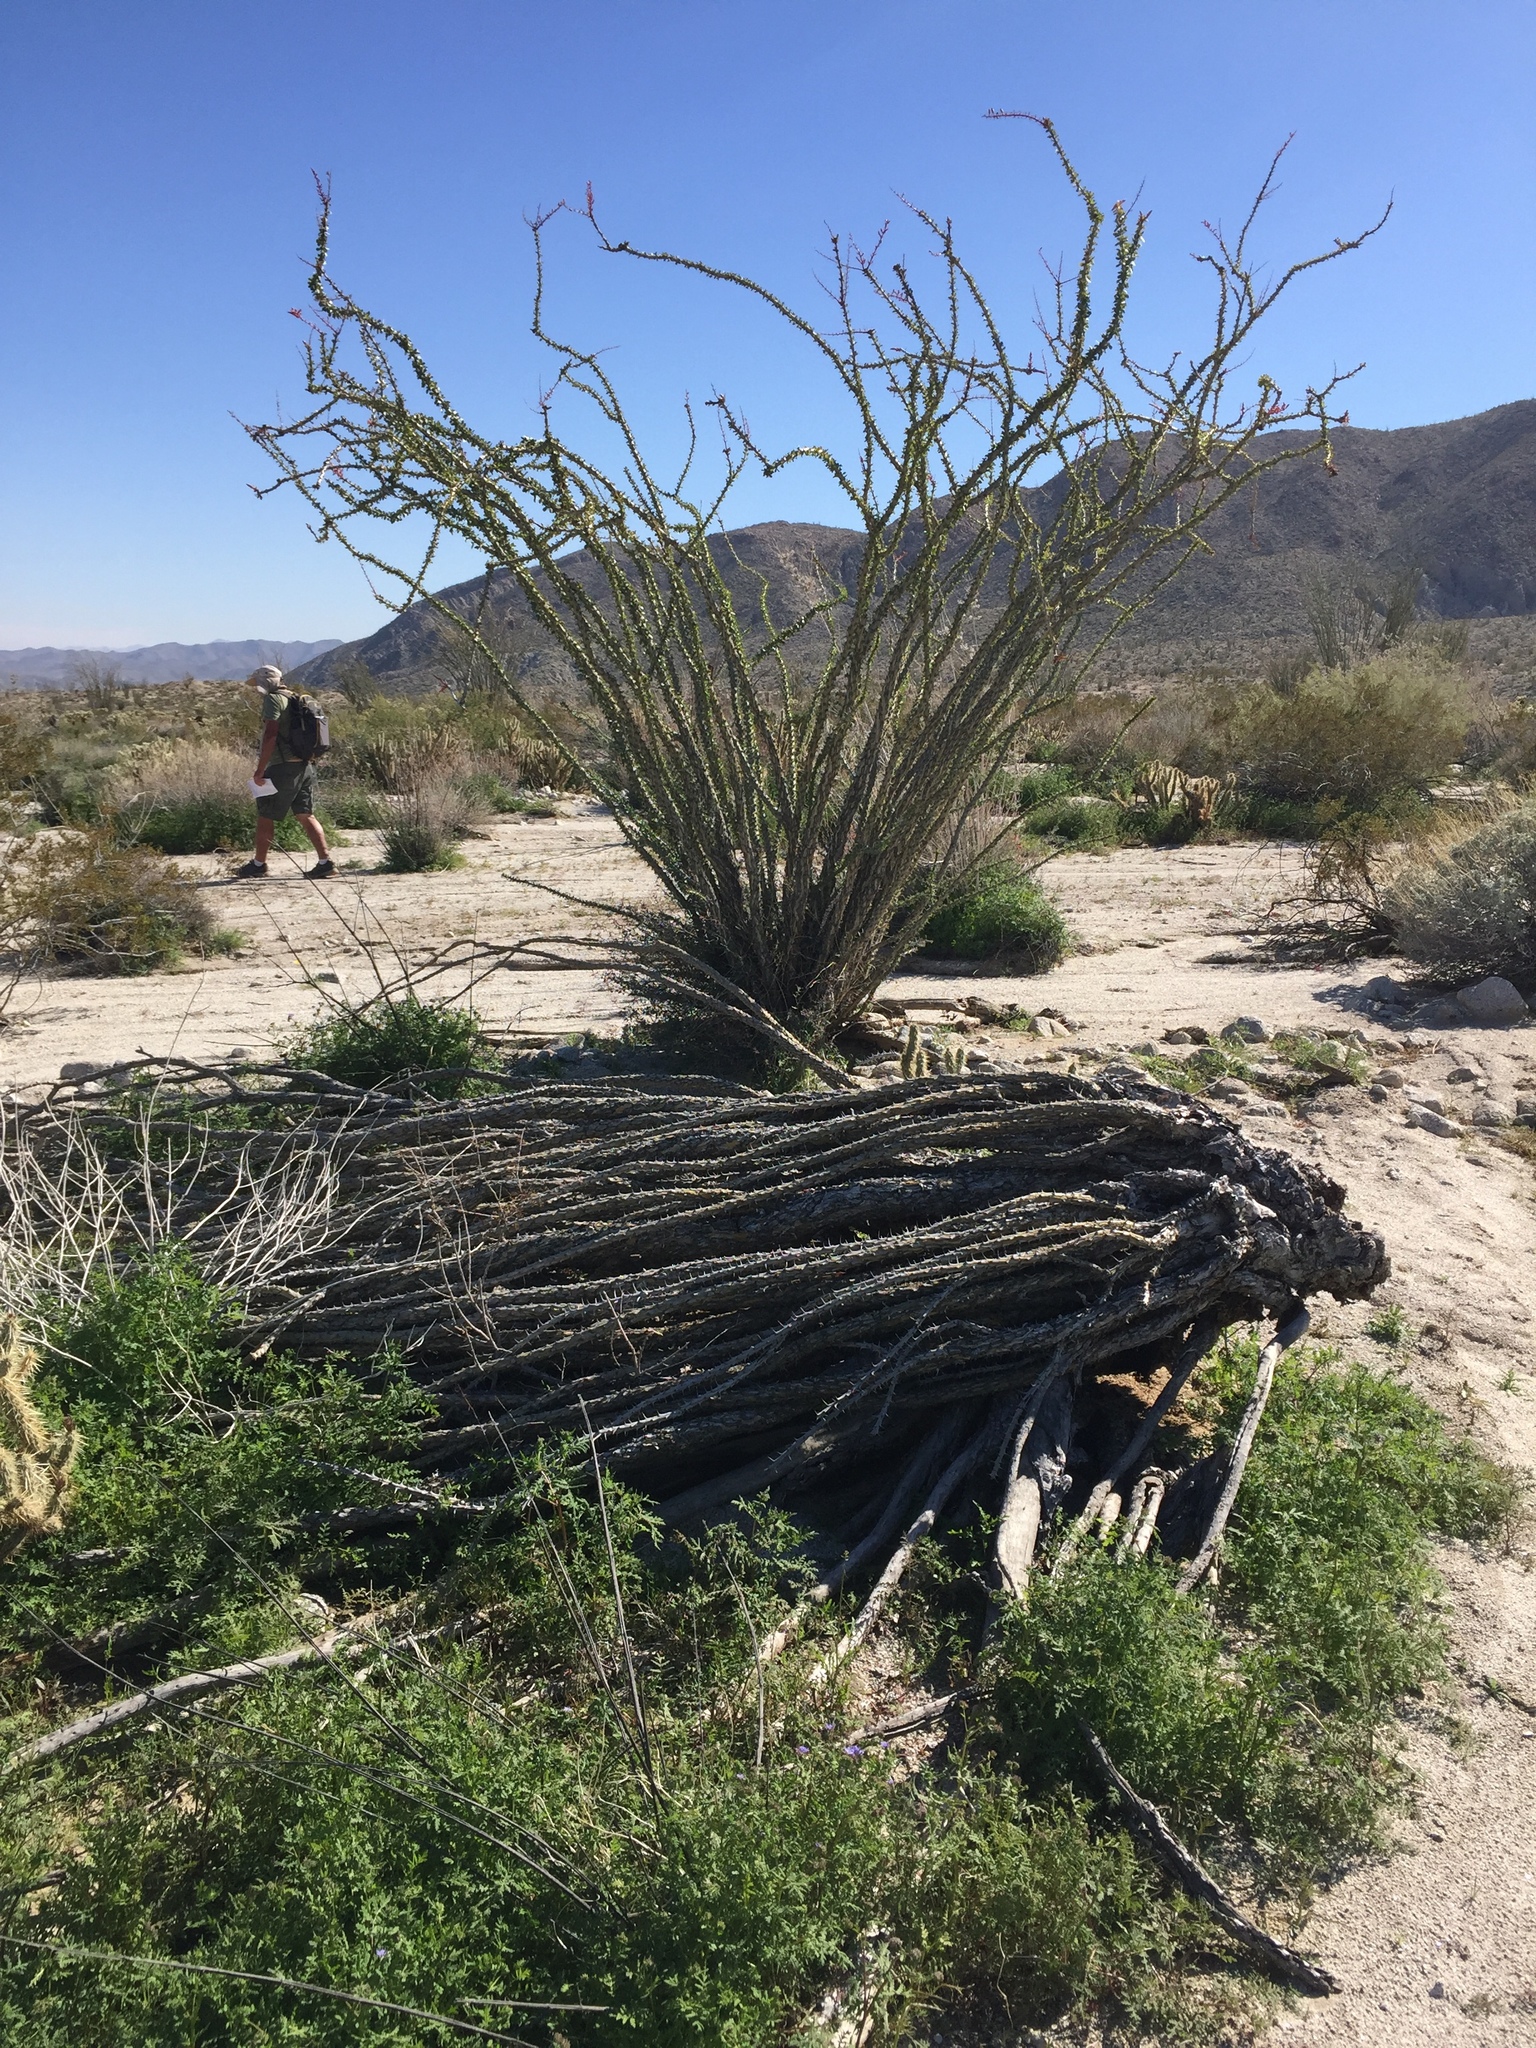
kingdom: Plantae
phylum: Tracheophyta
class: Magnoliopsida
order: Ericales
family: Fouquieriaceae
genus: Fouquieria
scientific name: Fouquieria splendens
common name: Vine-cactus
